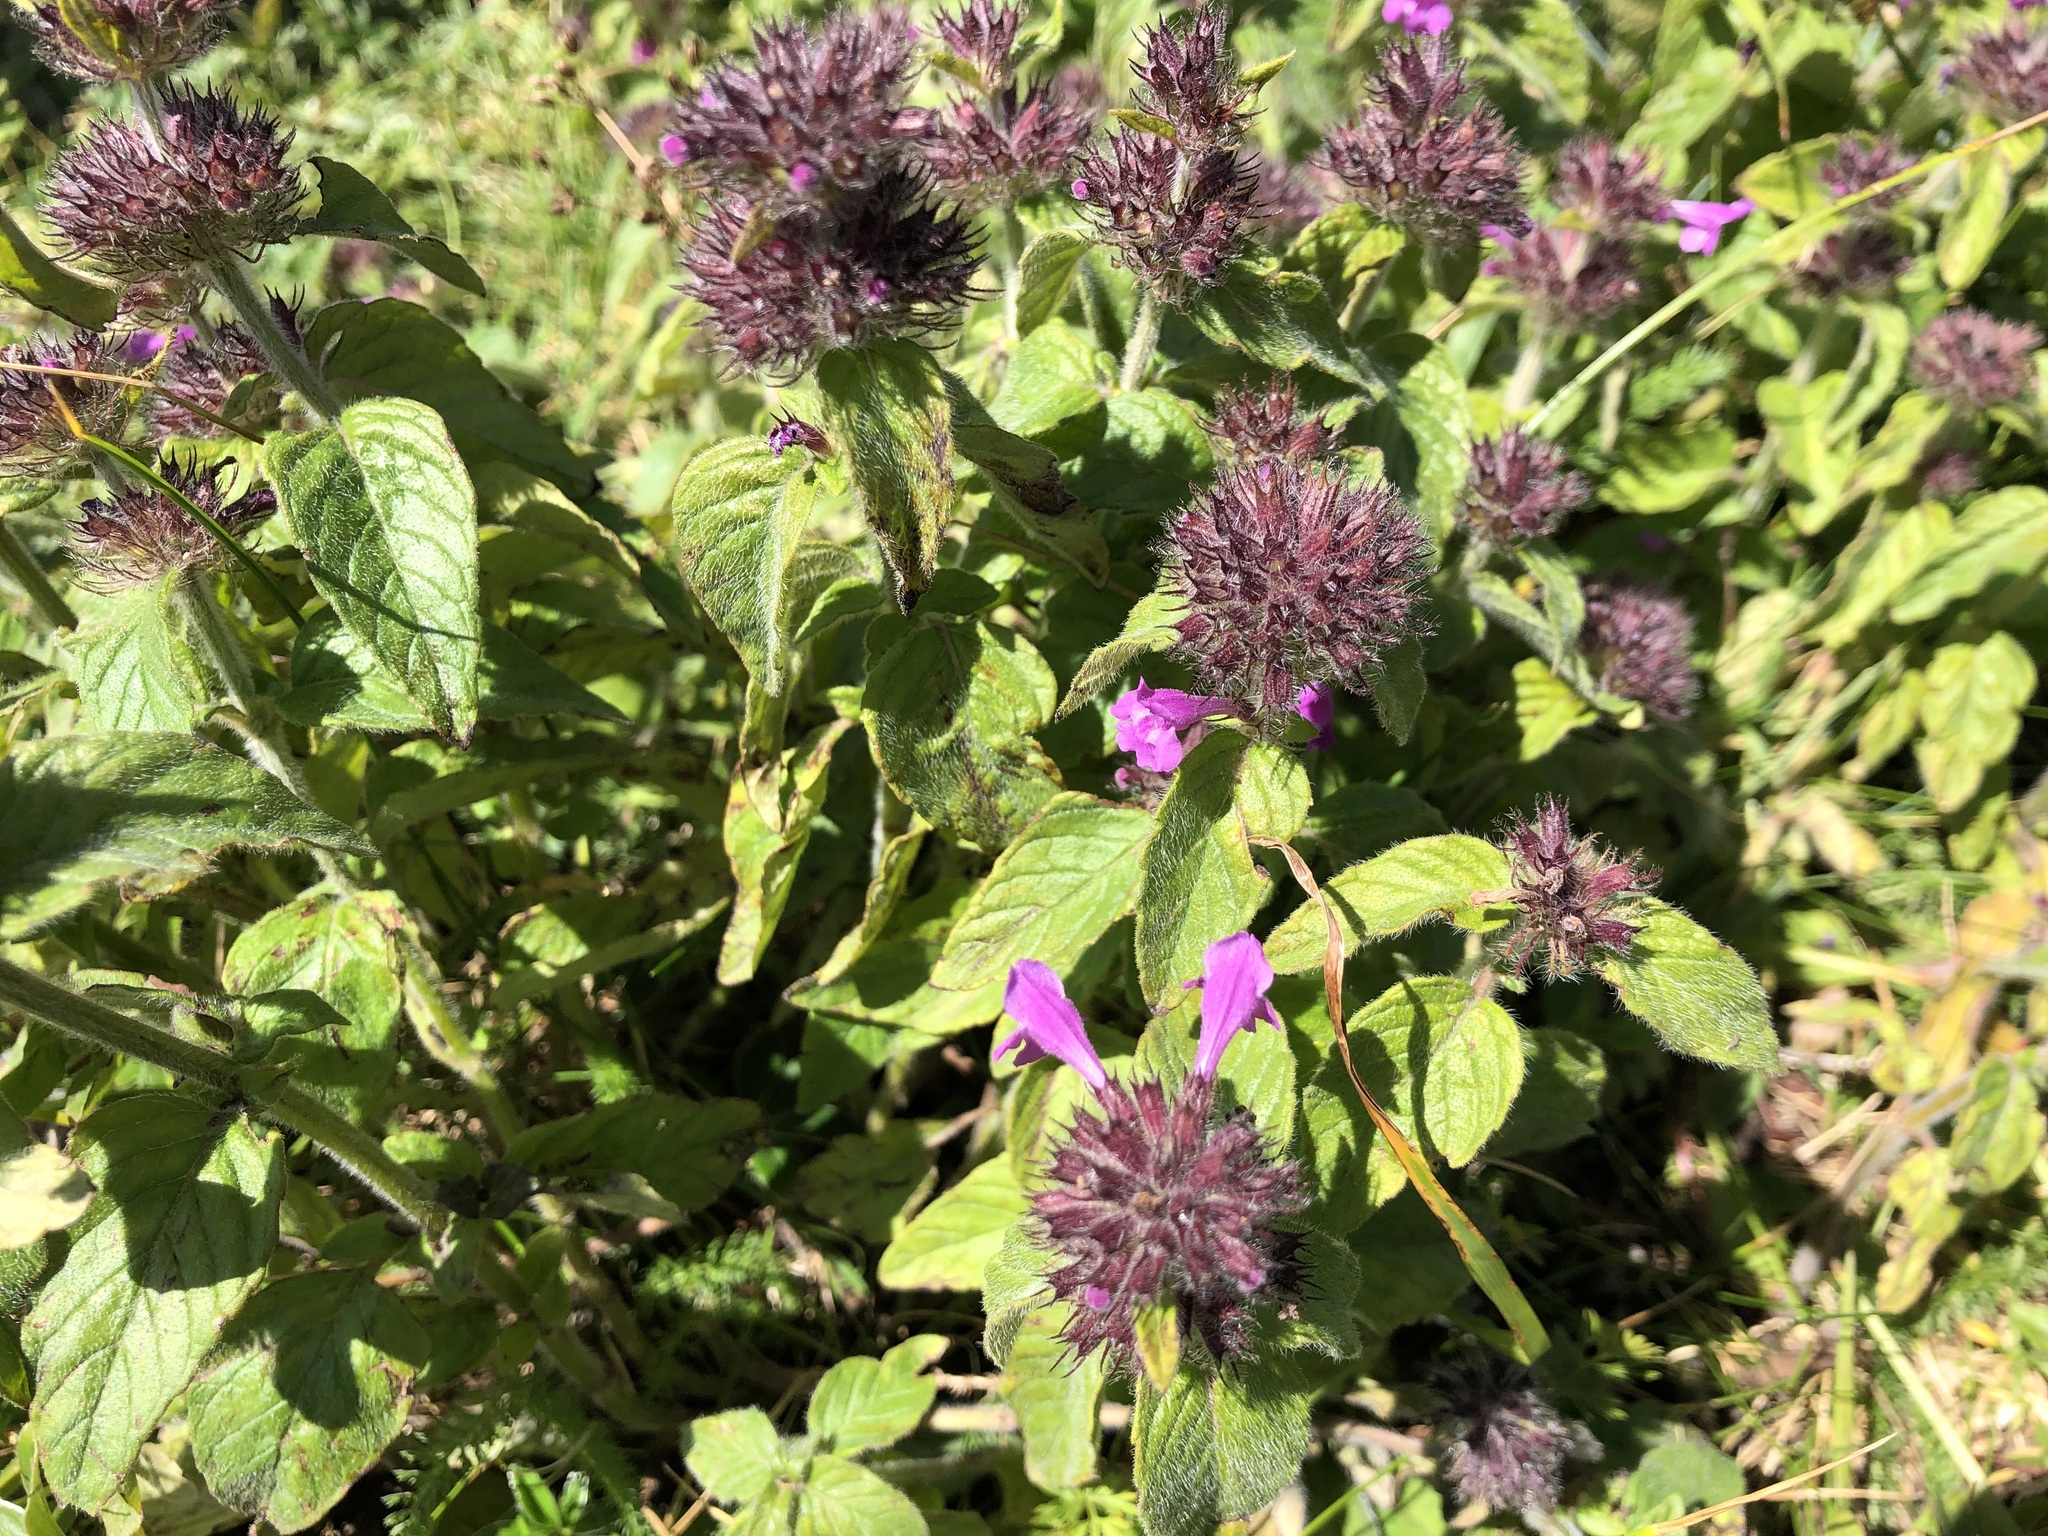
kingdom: Plantae
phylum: Tracheophyta
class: Magnoliopsida
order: Lamiales
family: Lamiaceae
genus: Clinopodium
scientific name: Clinopodium vulgare
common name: Wild basil
